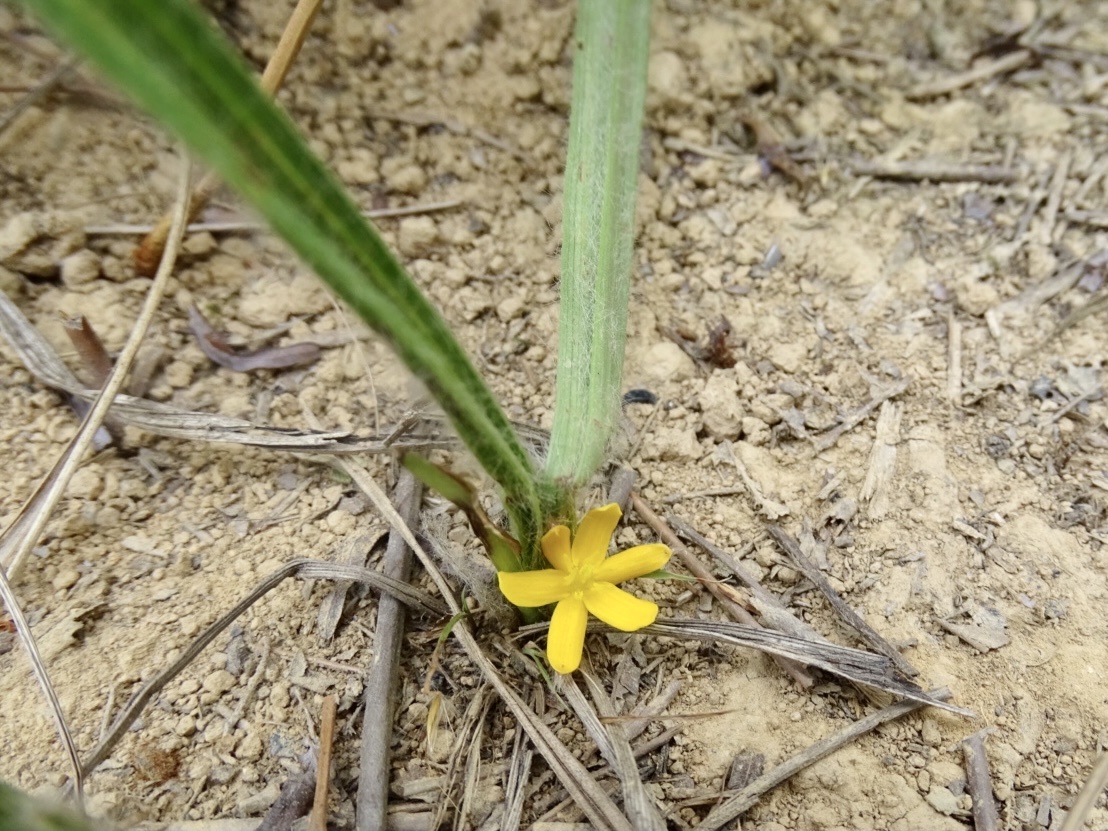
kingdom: Plantae
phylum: Tracheophyta
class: Liliopsida
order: Asparagales
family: Hypoxidaceae
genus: Curculigo
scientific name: Curculigo orchioides
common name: Golden eye-grass
